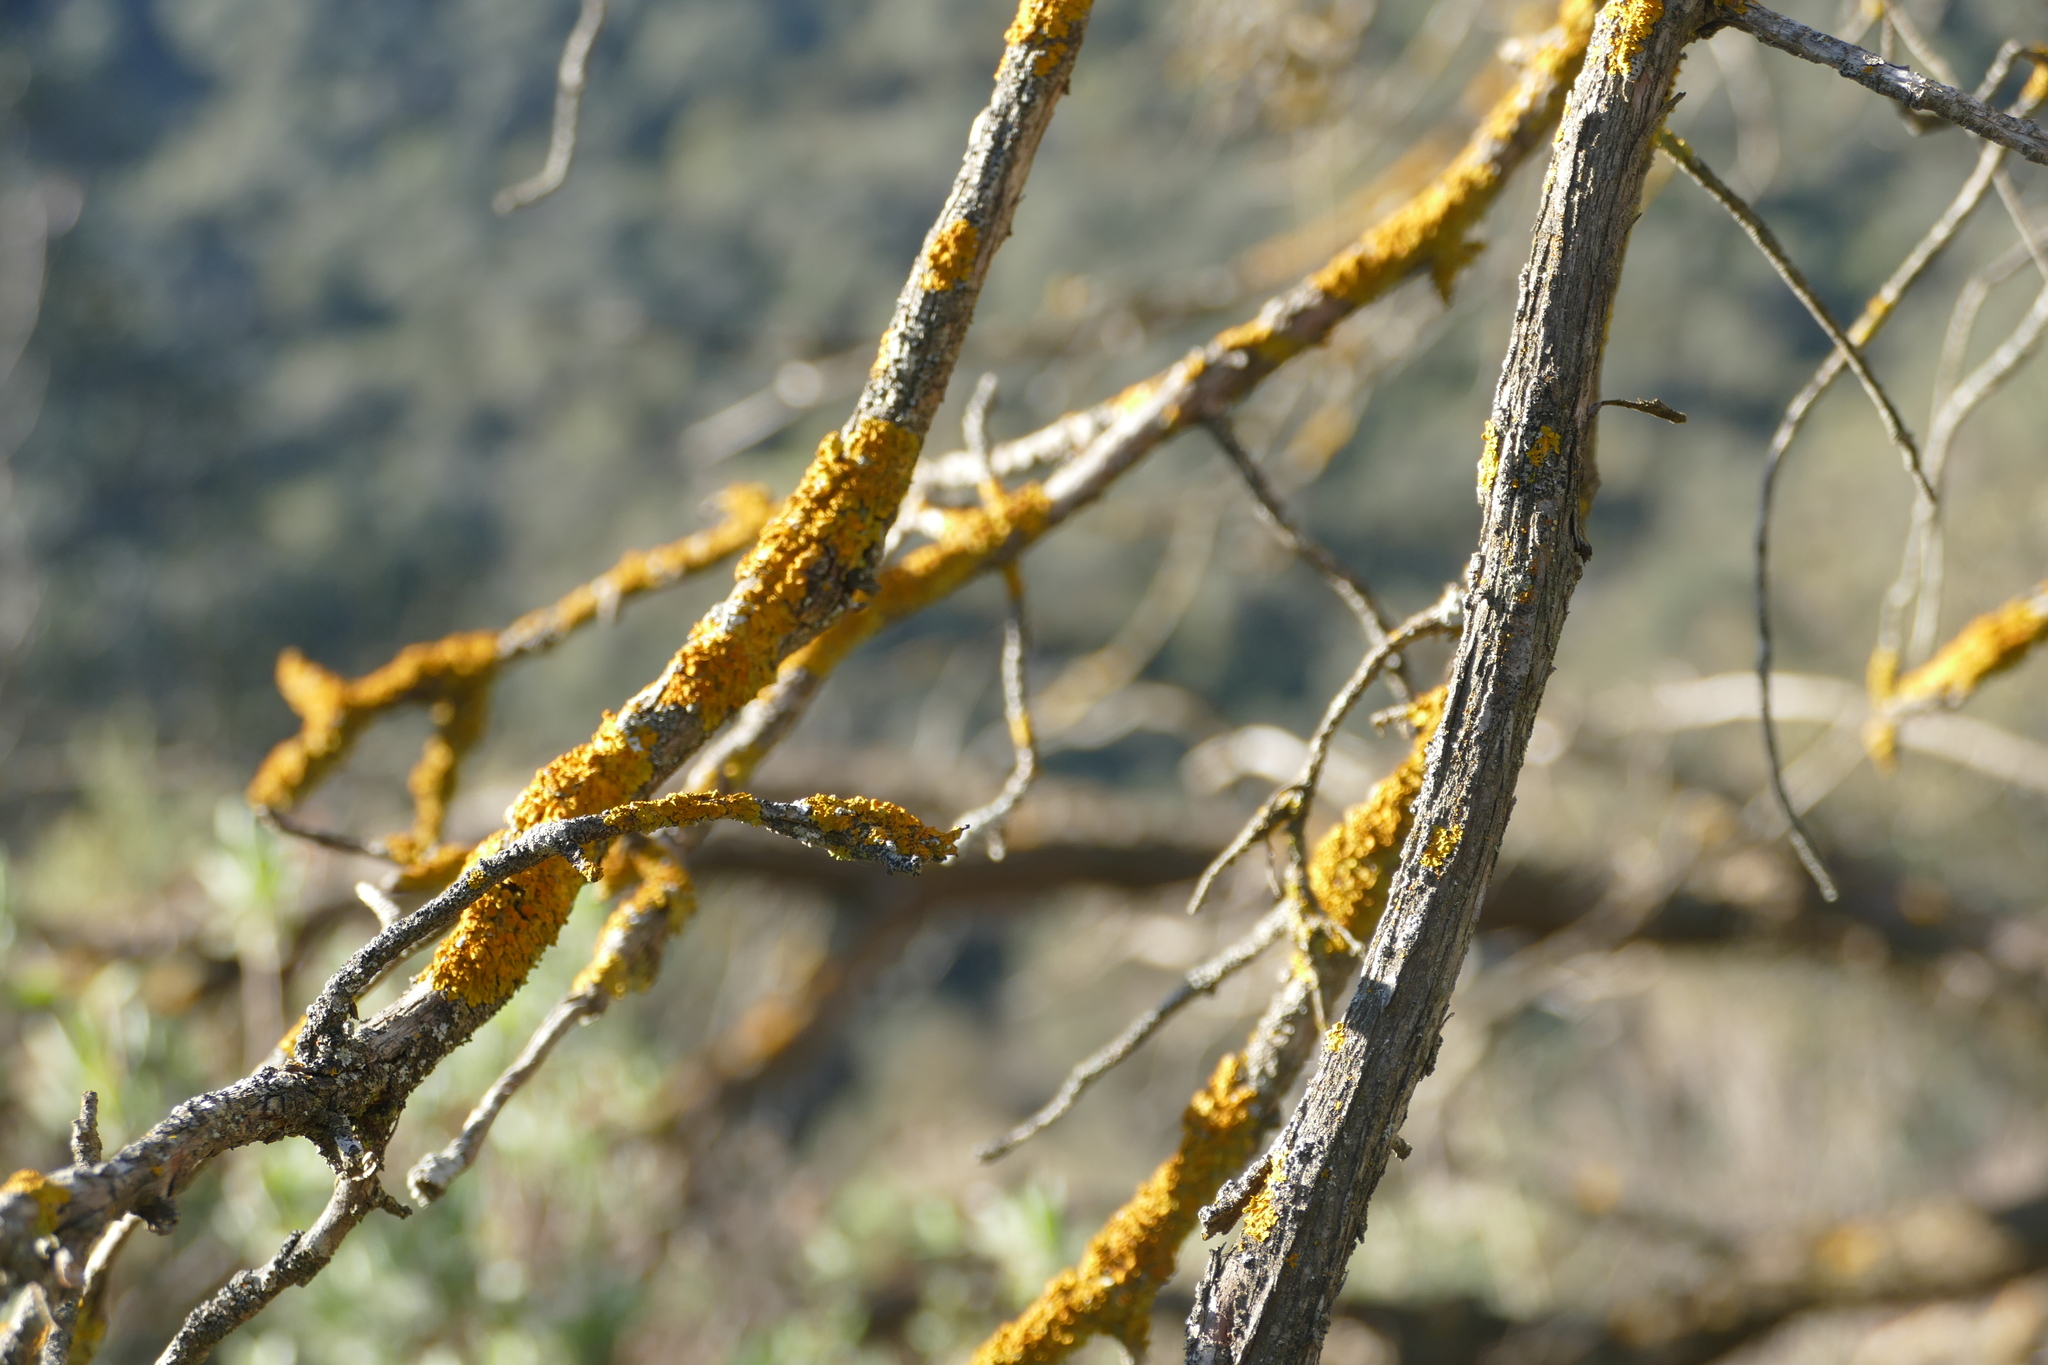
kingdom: Fungi
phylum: Ascomycota
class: Lecanoromycetes
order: Teloschistales
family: Teloschistaceae
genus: Xanthoria
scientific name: Xanthoria parietina
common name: Common orange lichen
